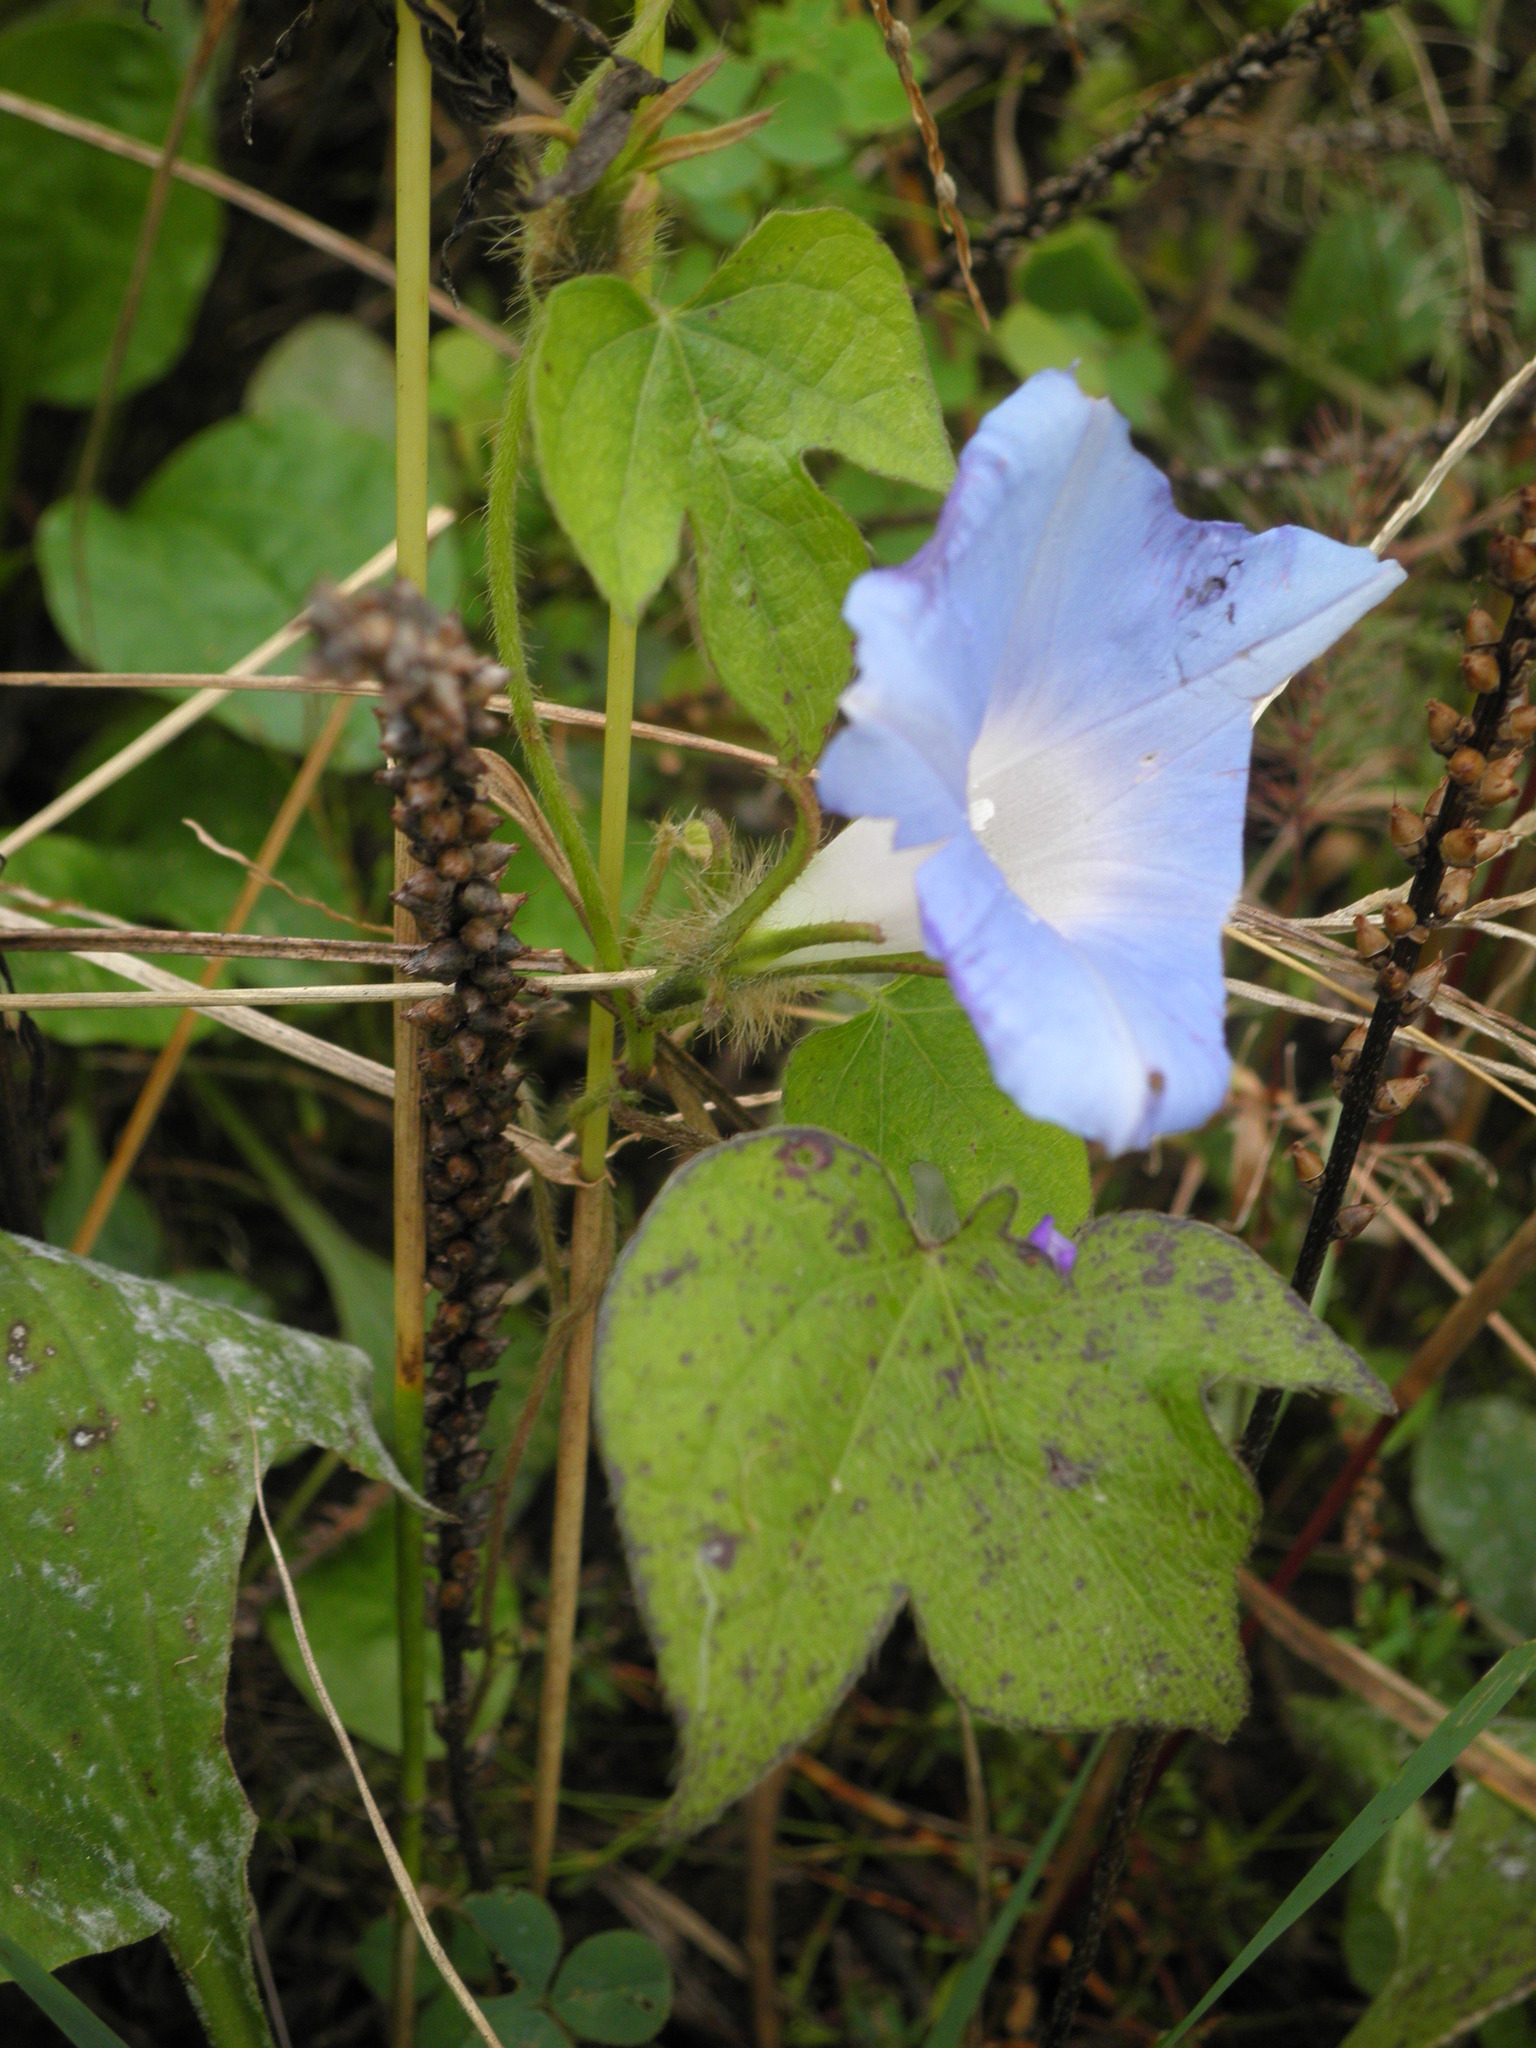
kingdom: Plantae
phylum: Tracheophyta
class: Magnoliopsida
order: Solanales
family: Convolvulaceae
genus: Ipomoea
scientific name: Ipomoea hederacea
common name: Ivy-leaved morning-glory
